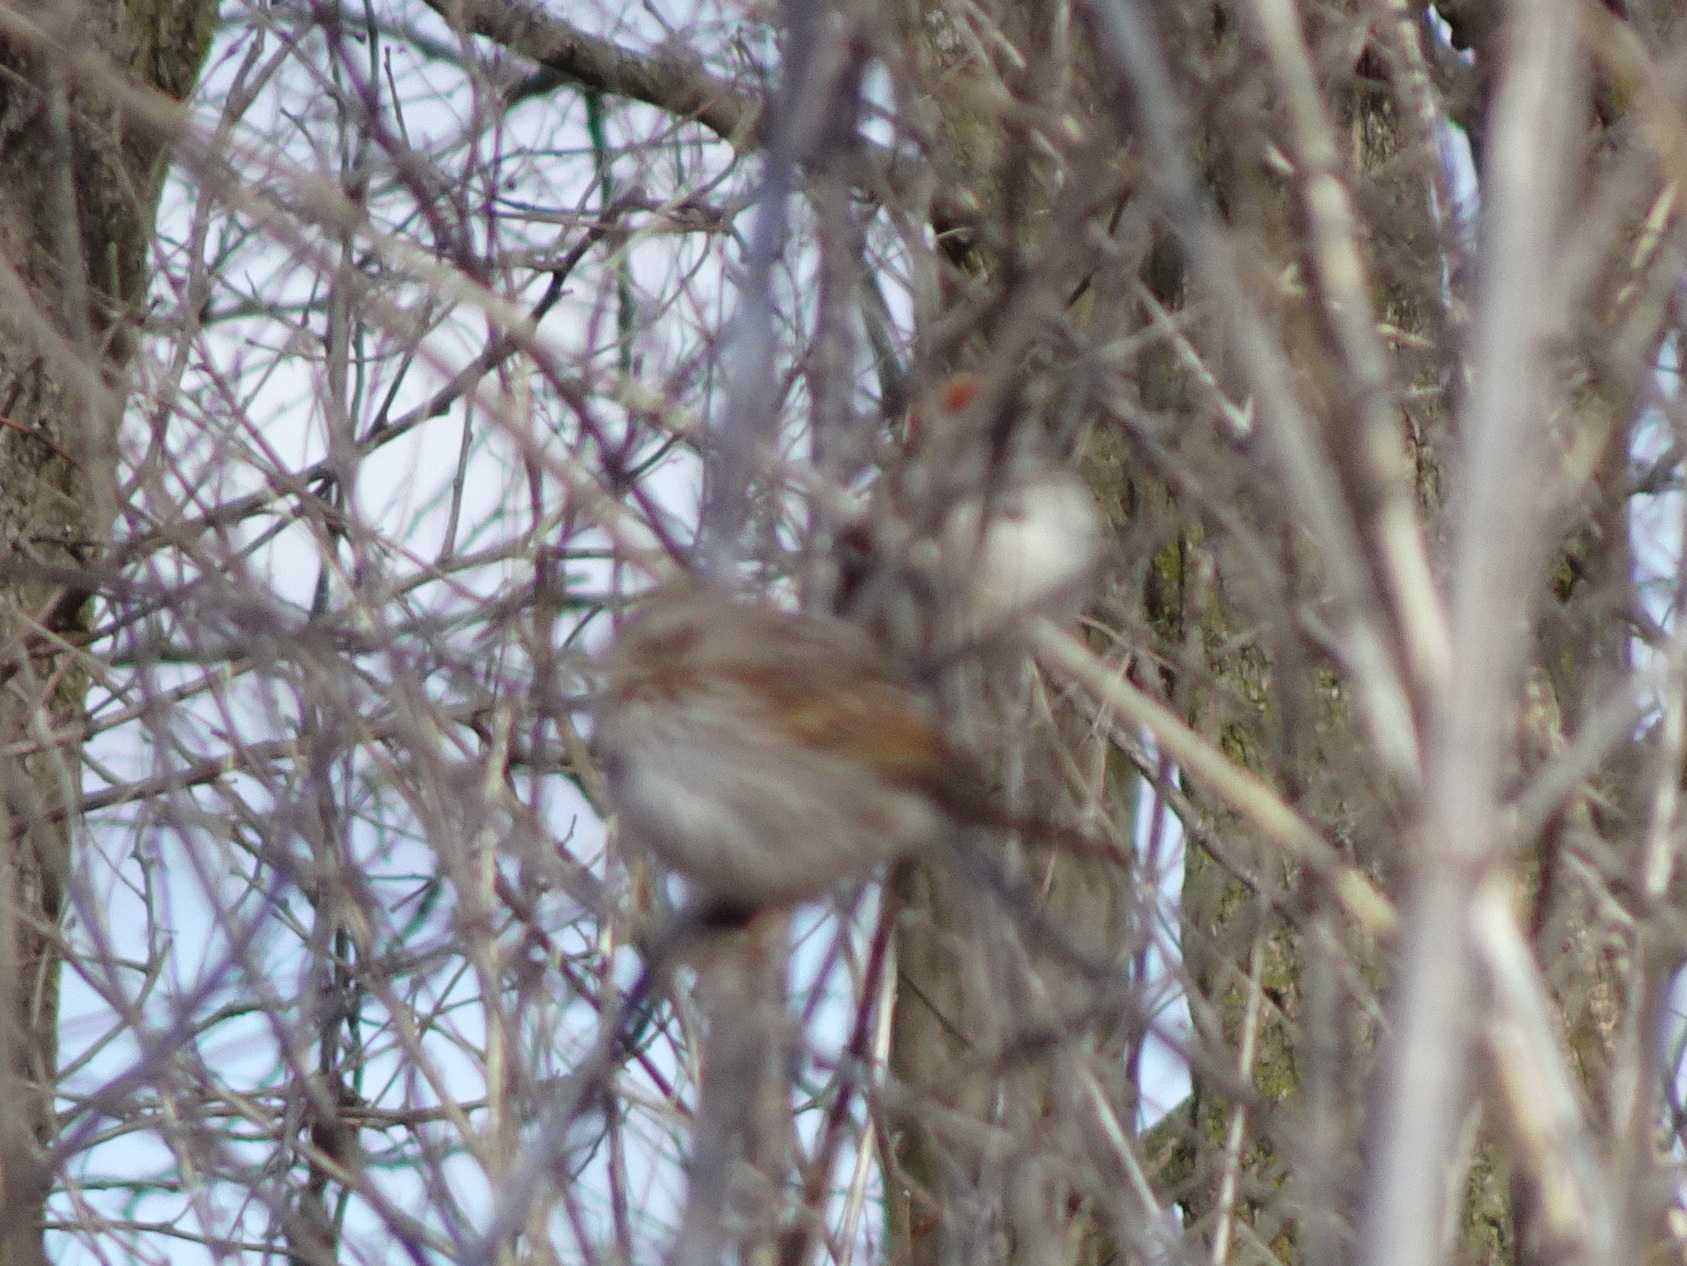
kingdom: Animalia
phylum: Chordata
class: Aves
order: Passeriformes
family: Passerellidae
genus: Spizelloides
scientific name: Spizelloides arborea
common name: American tree sparrow
